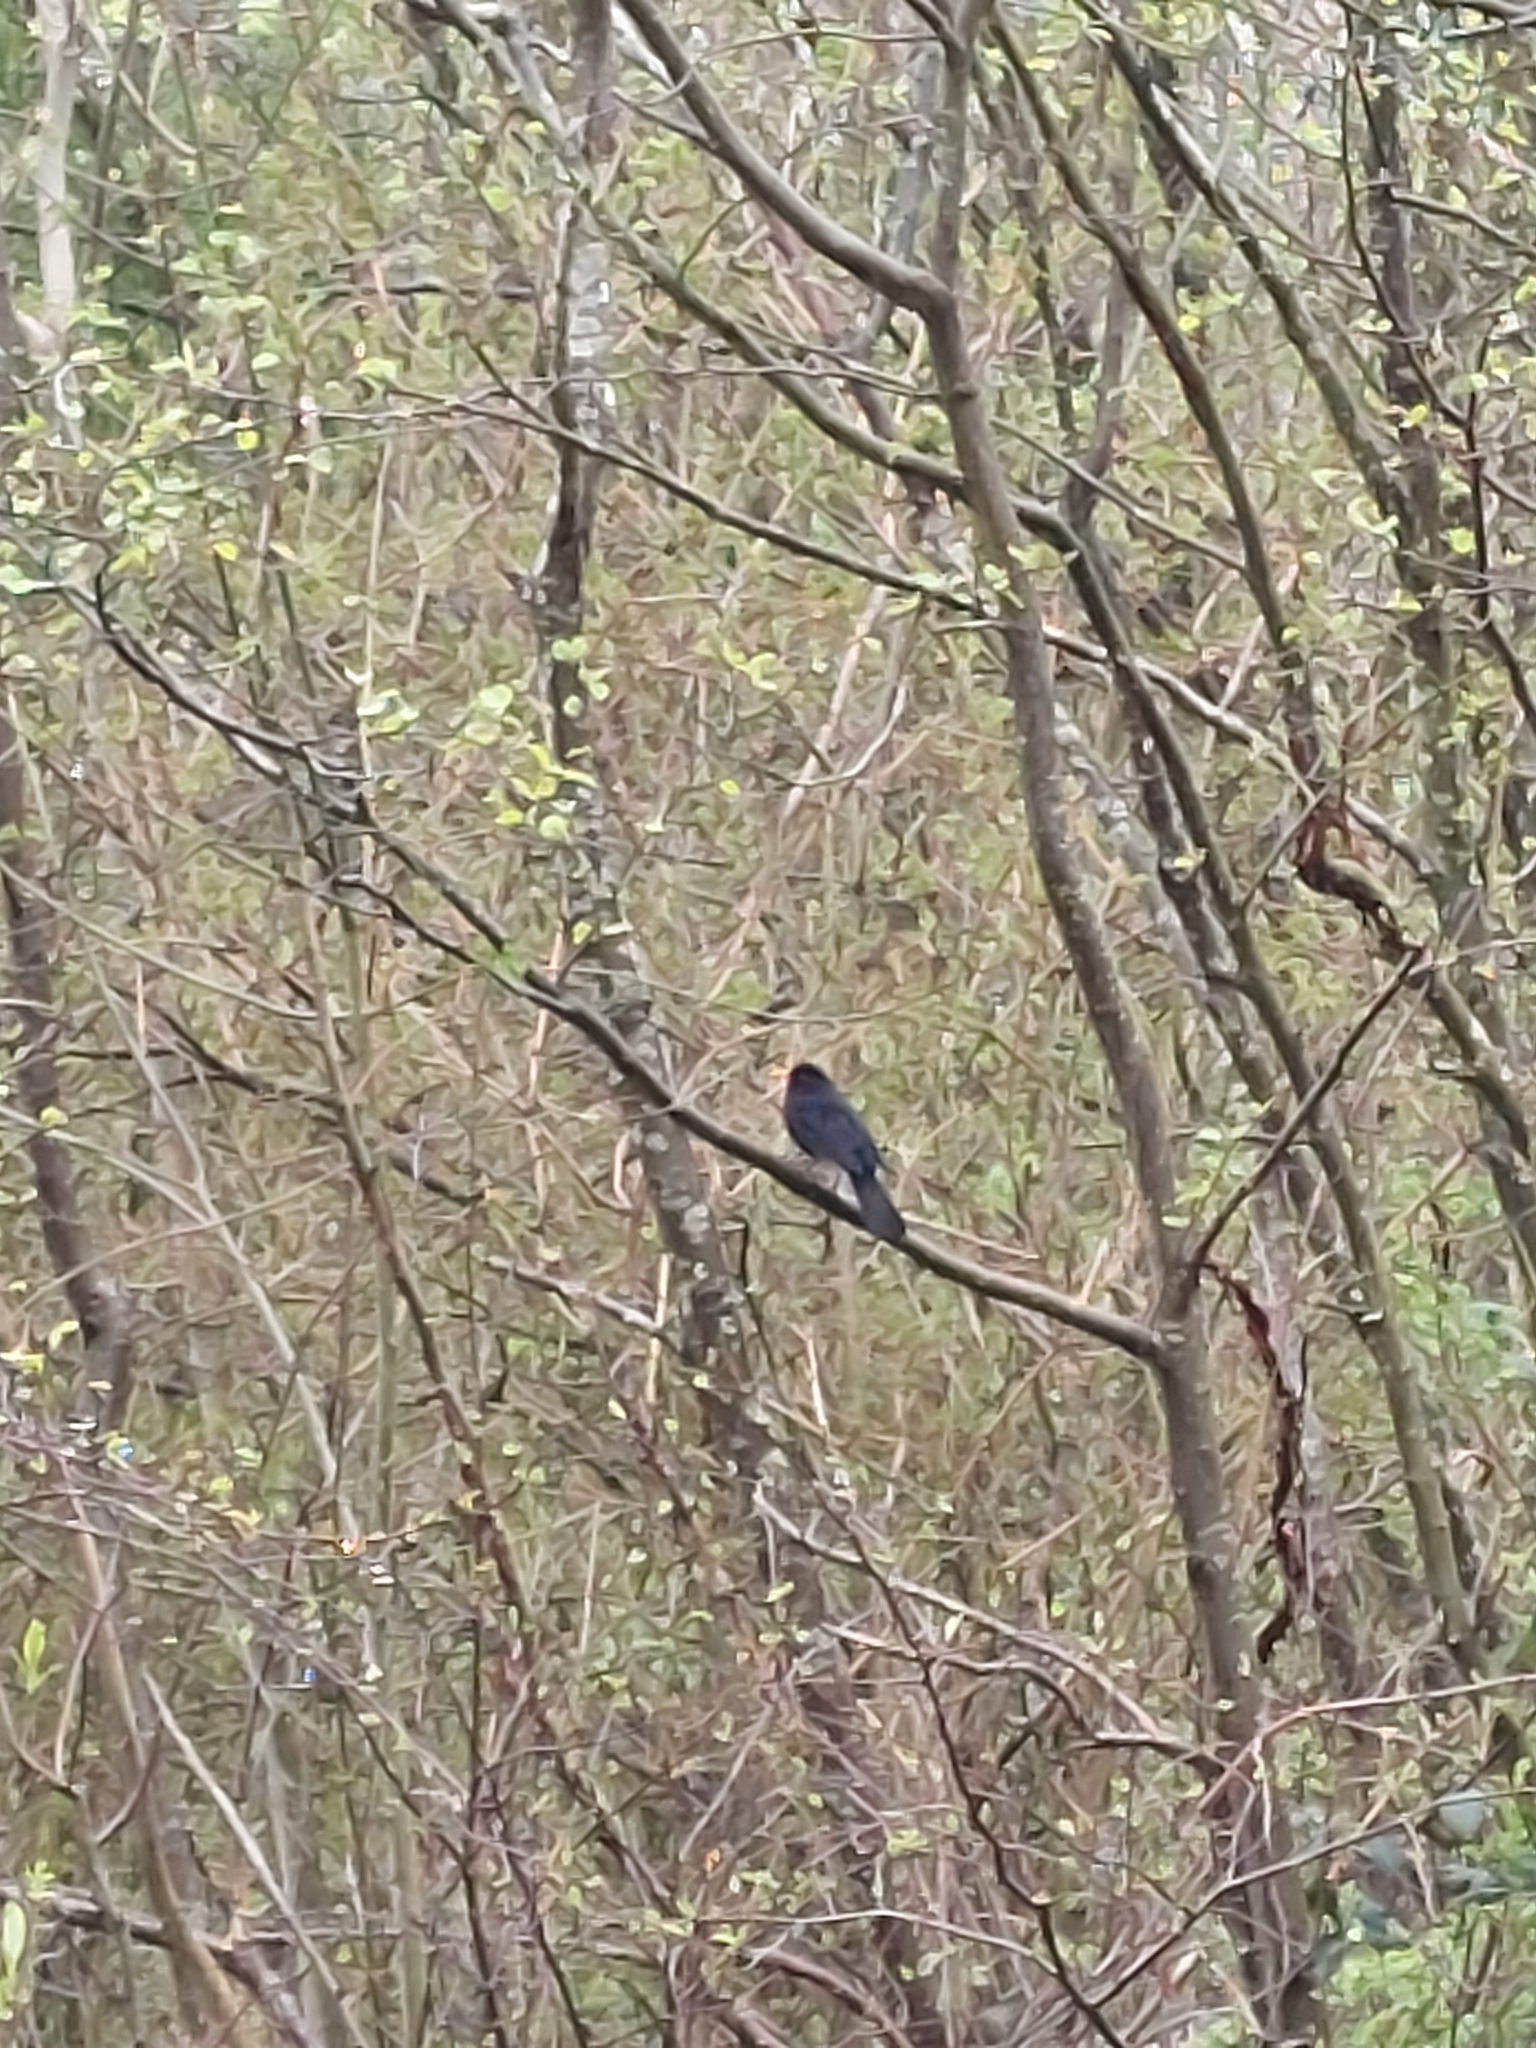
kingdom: Animalia
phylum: Chordata
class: Aves
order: Passeriformes
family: Turdidae
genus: Turdus
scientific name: Turdus merula
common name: Common blackbird
